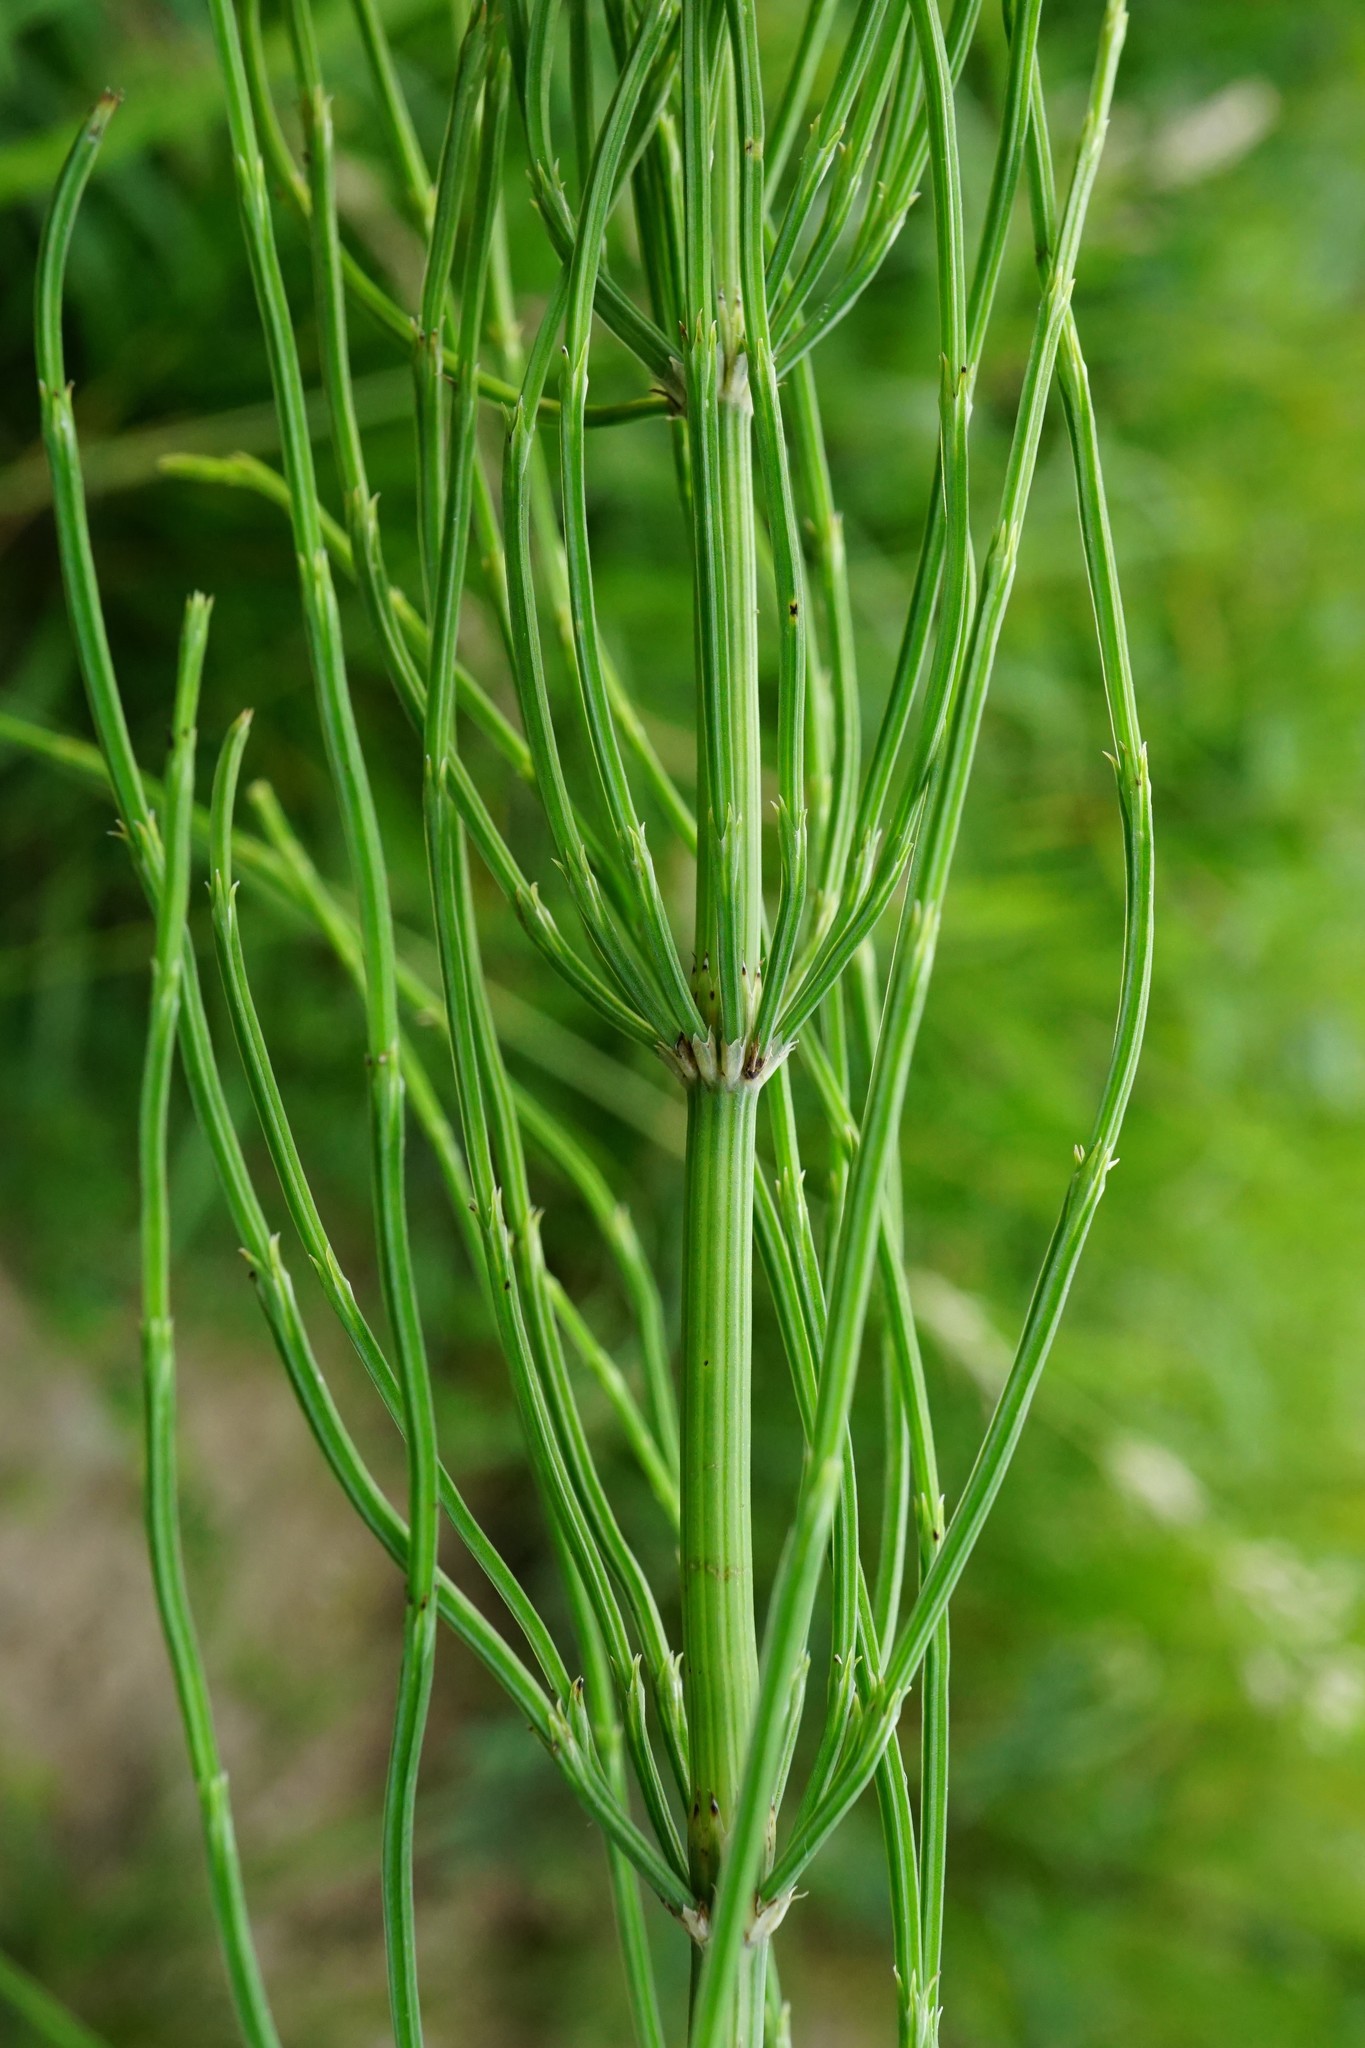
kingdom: Plantae
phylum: Tracheophyta
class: Polypodiopsida
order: Equisetales
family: Equisetaceae
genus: Equisetum
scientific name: Equisetum arvense
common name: Field horsetail
